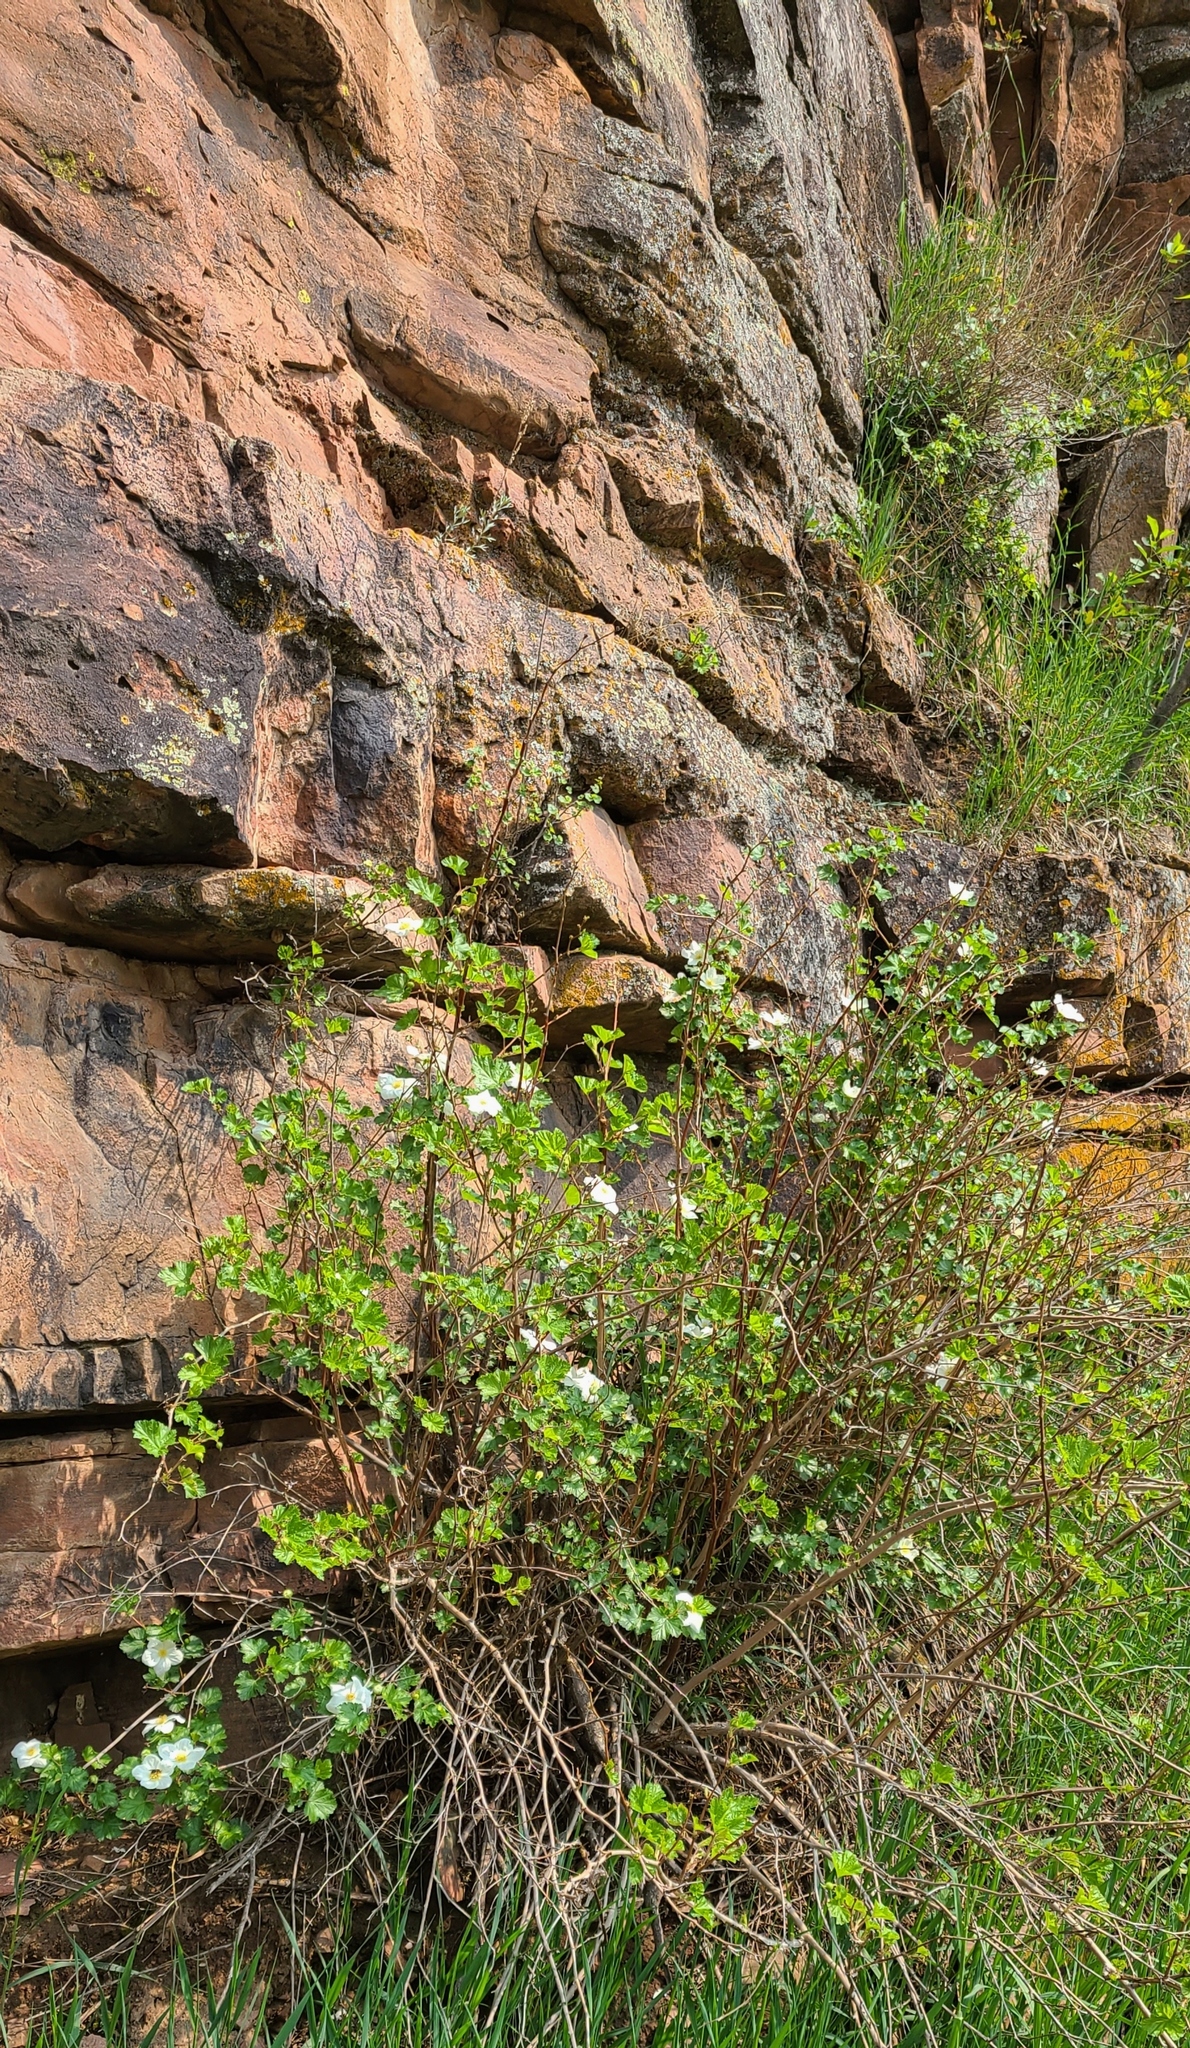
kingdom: Plantae
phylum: Tracheophyta
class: Magnoliopsida
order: Rosales
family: Rosaceae
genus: Rubus
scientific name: Rubus deliciosus
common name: Rocky mountain raspberry
